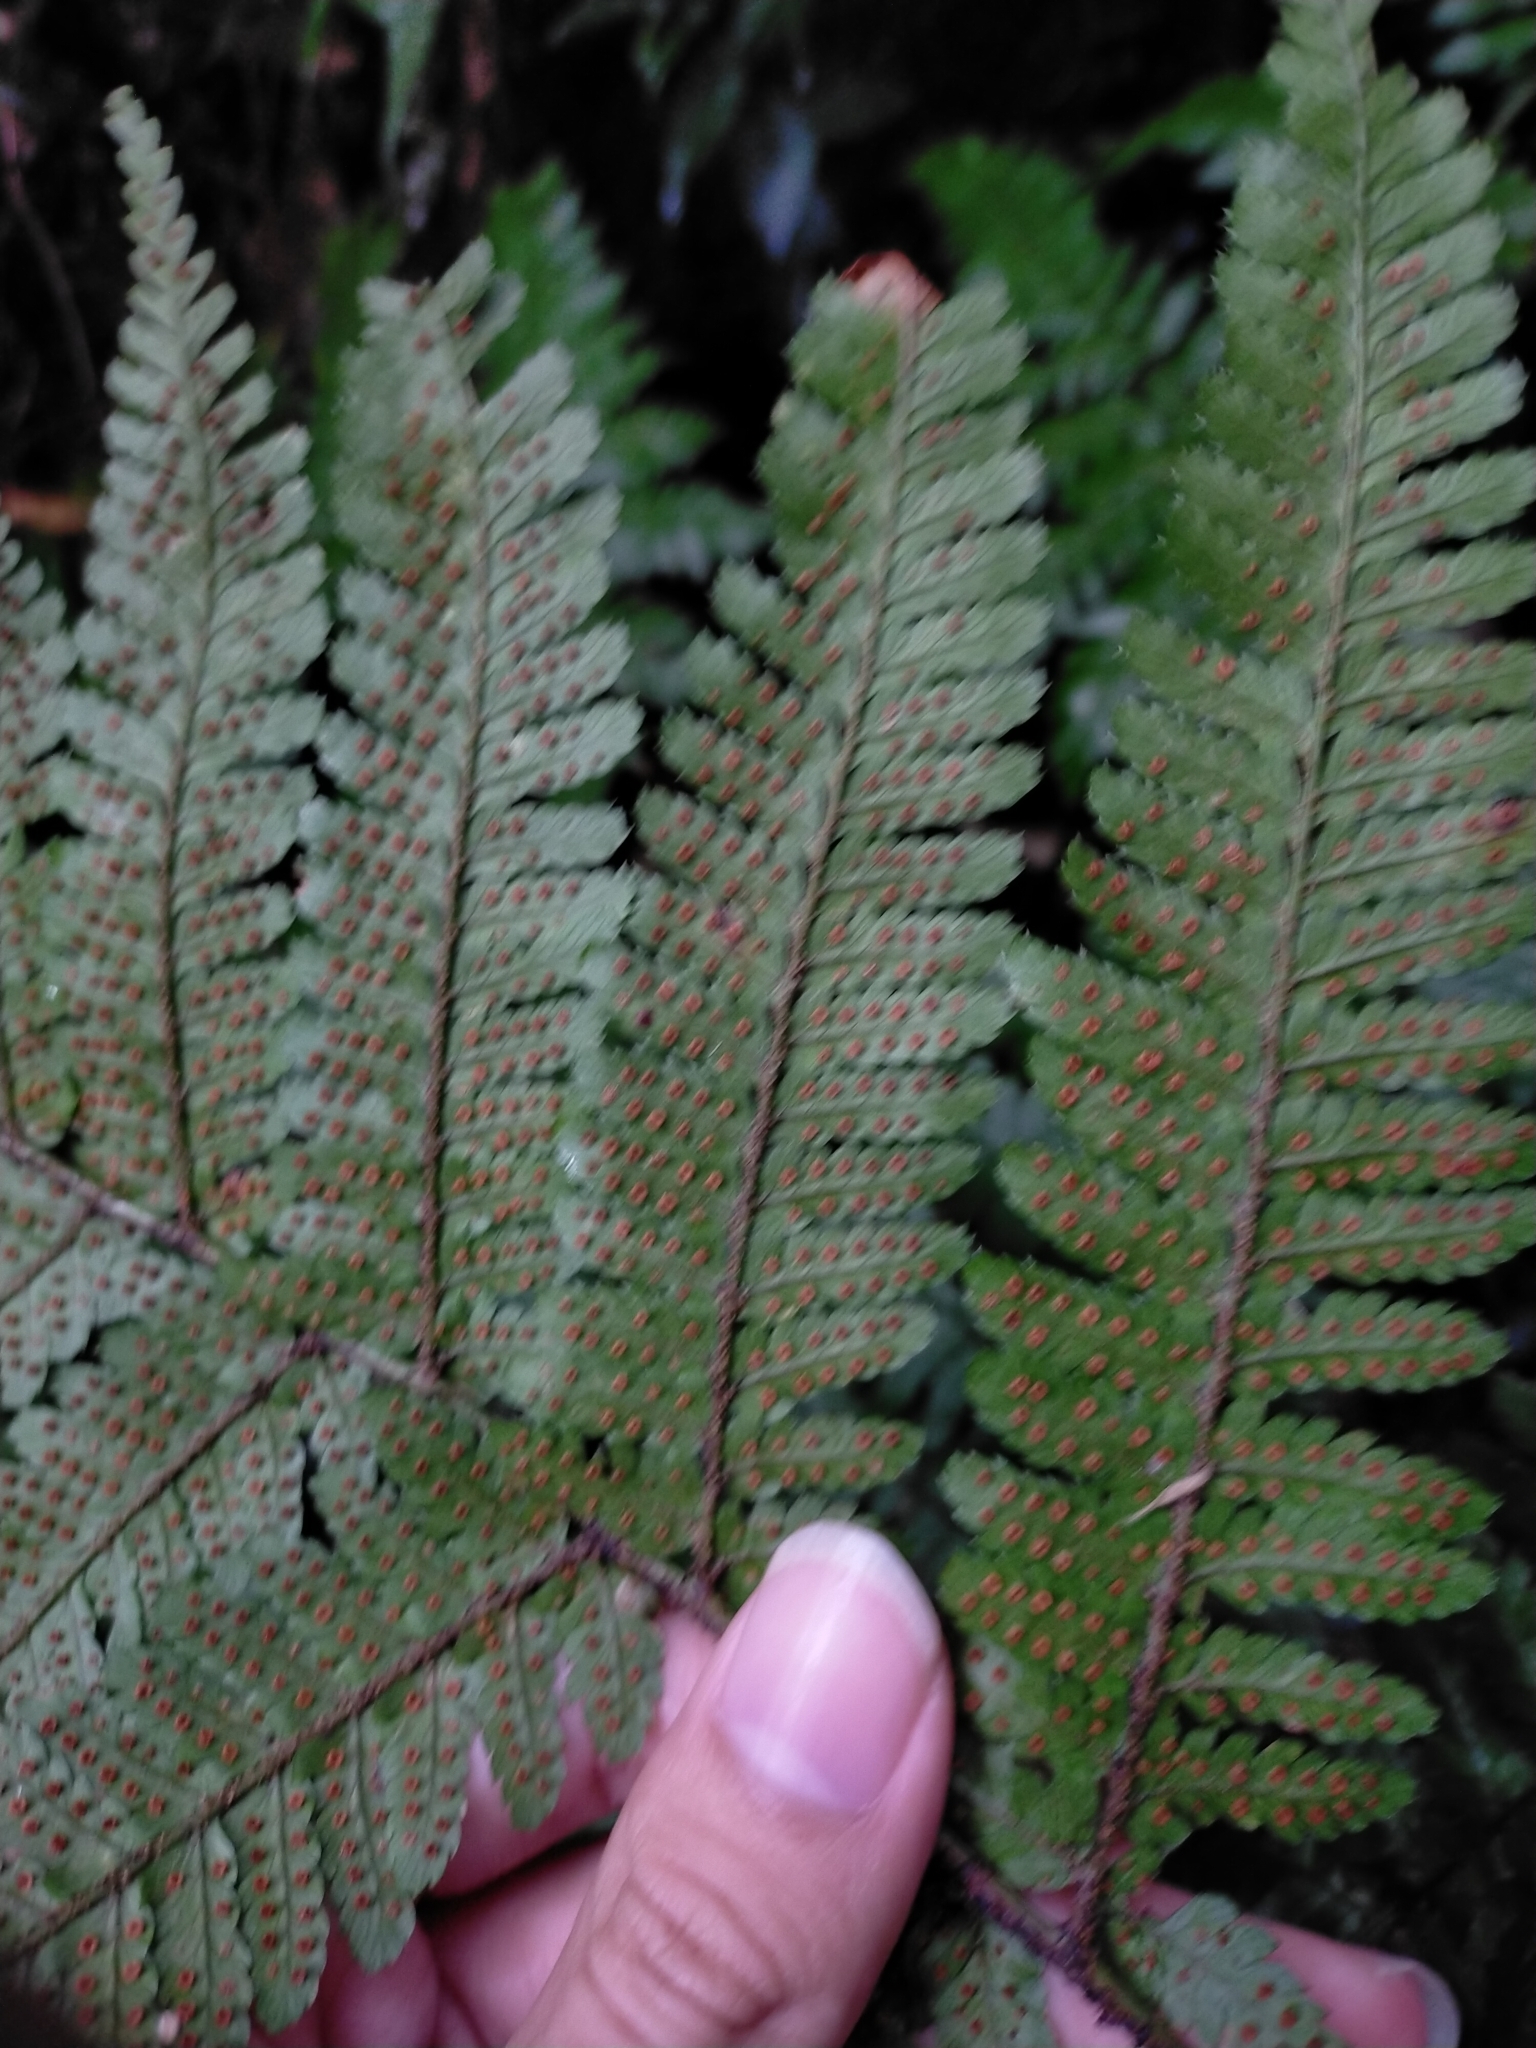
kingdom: Plantae
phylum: Tracheophyta
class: Polypodiopsida
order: Polypodiales
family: Dryopteridaceae
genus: Dryopteris
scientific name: Dryopteris formosana
